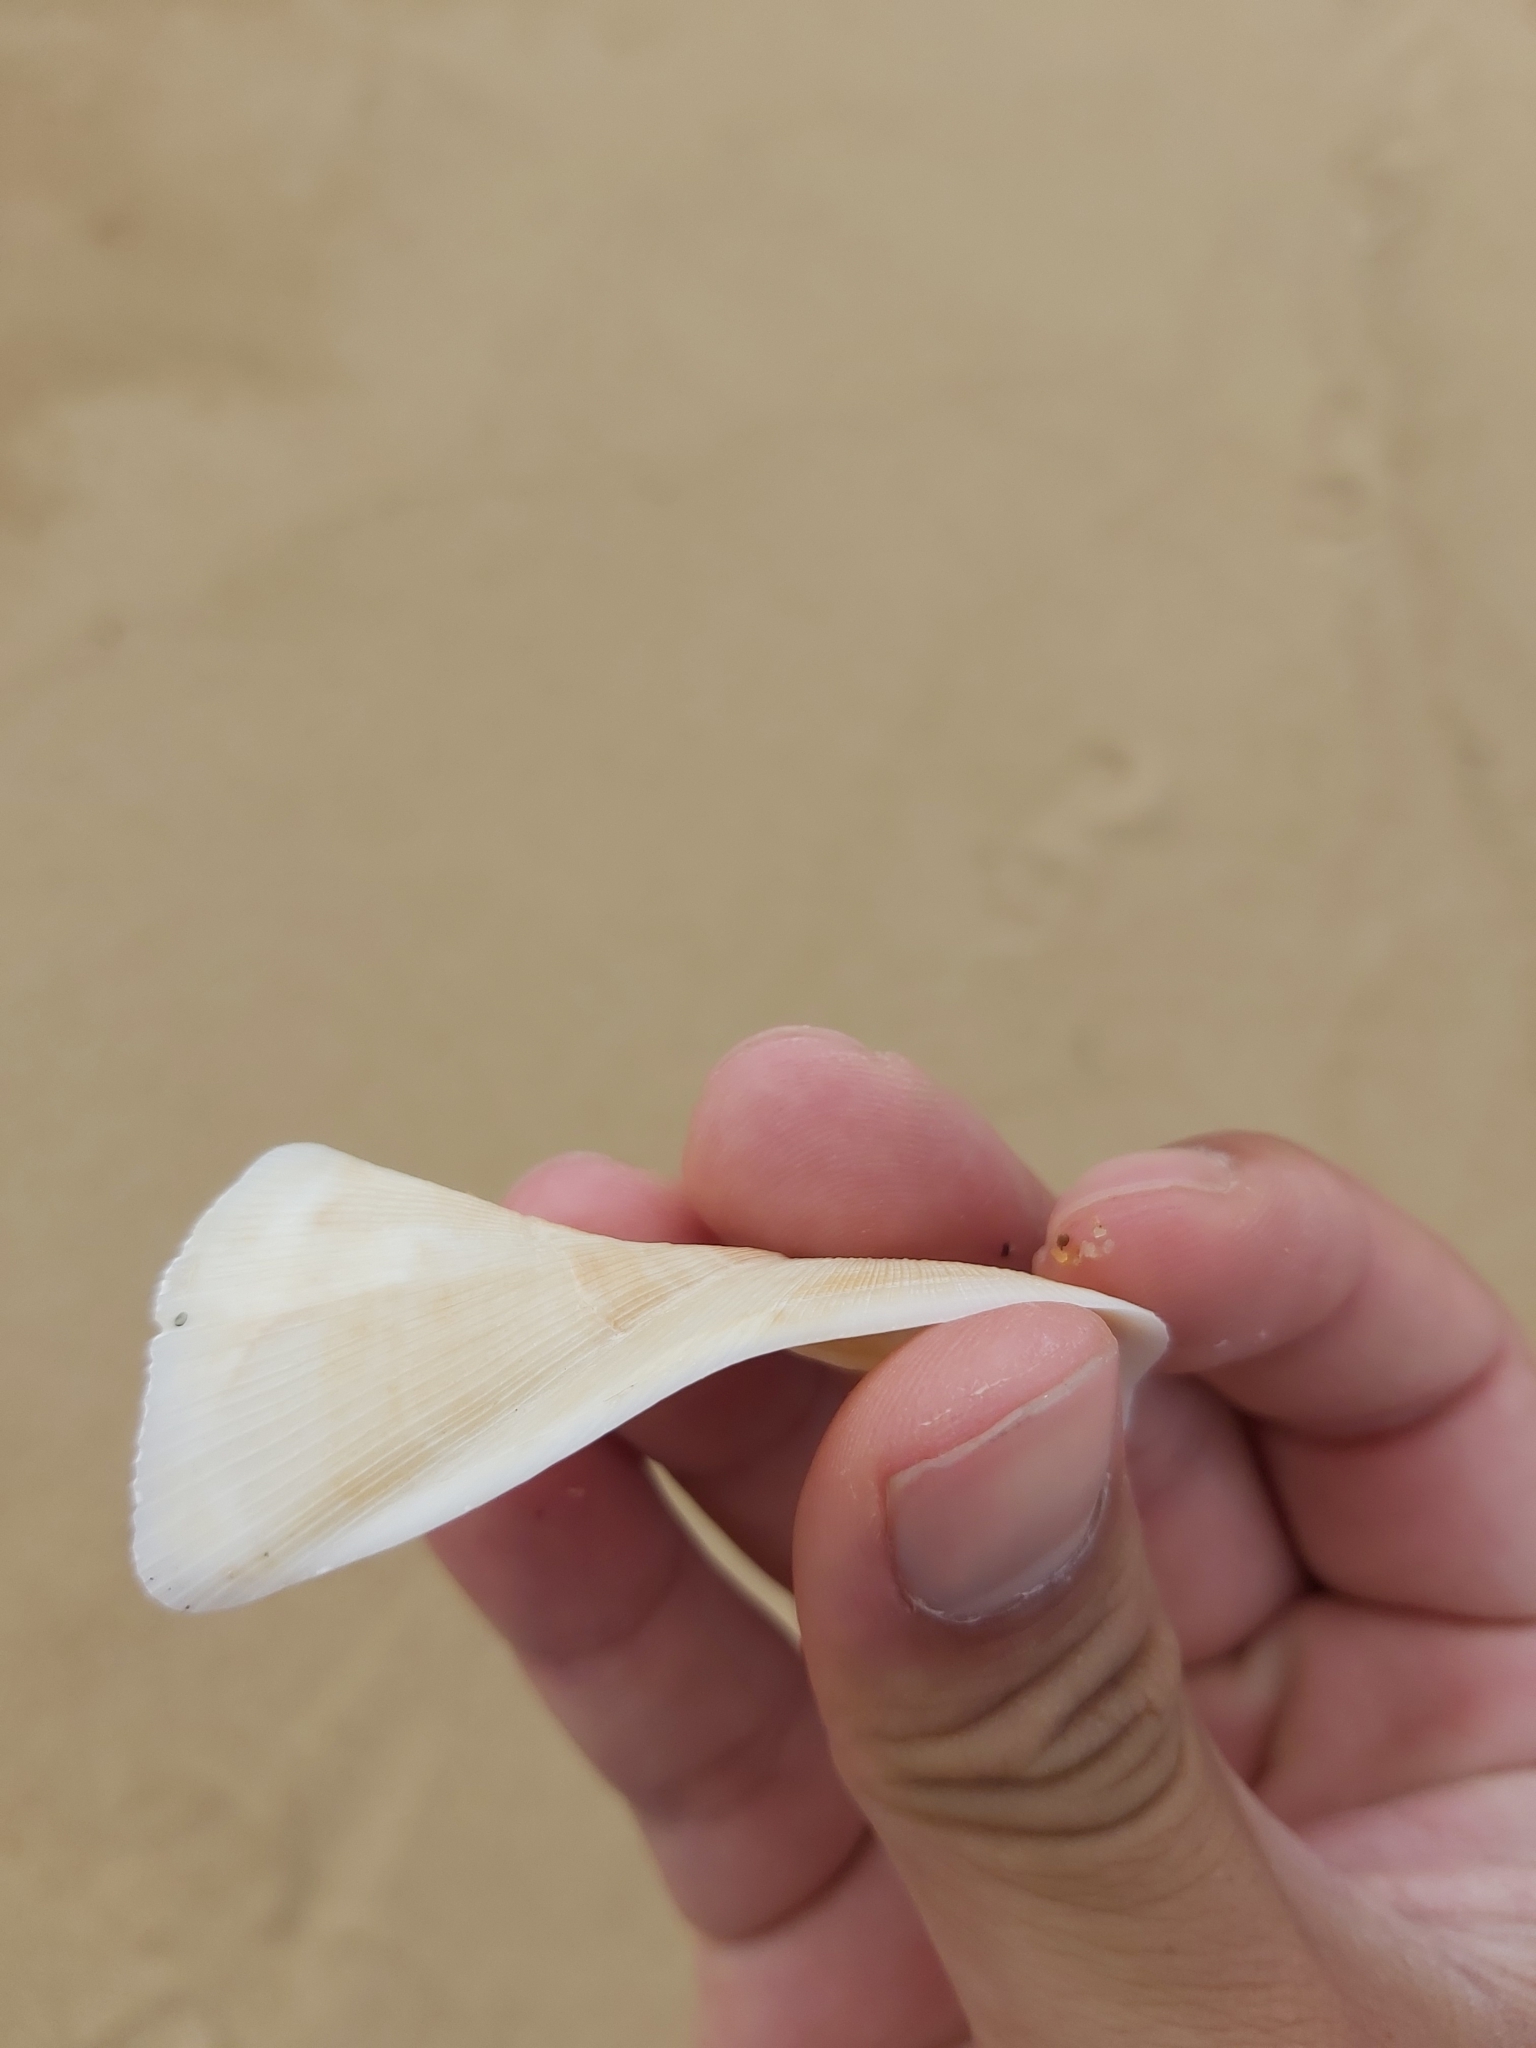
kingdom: Animalia
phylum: Mollusca
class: Bivalvia
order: Arcida
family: Arcidae
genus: Trisidos
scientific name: Trisidos tortuosa
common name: Propeller ark
